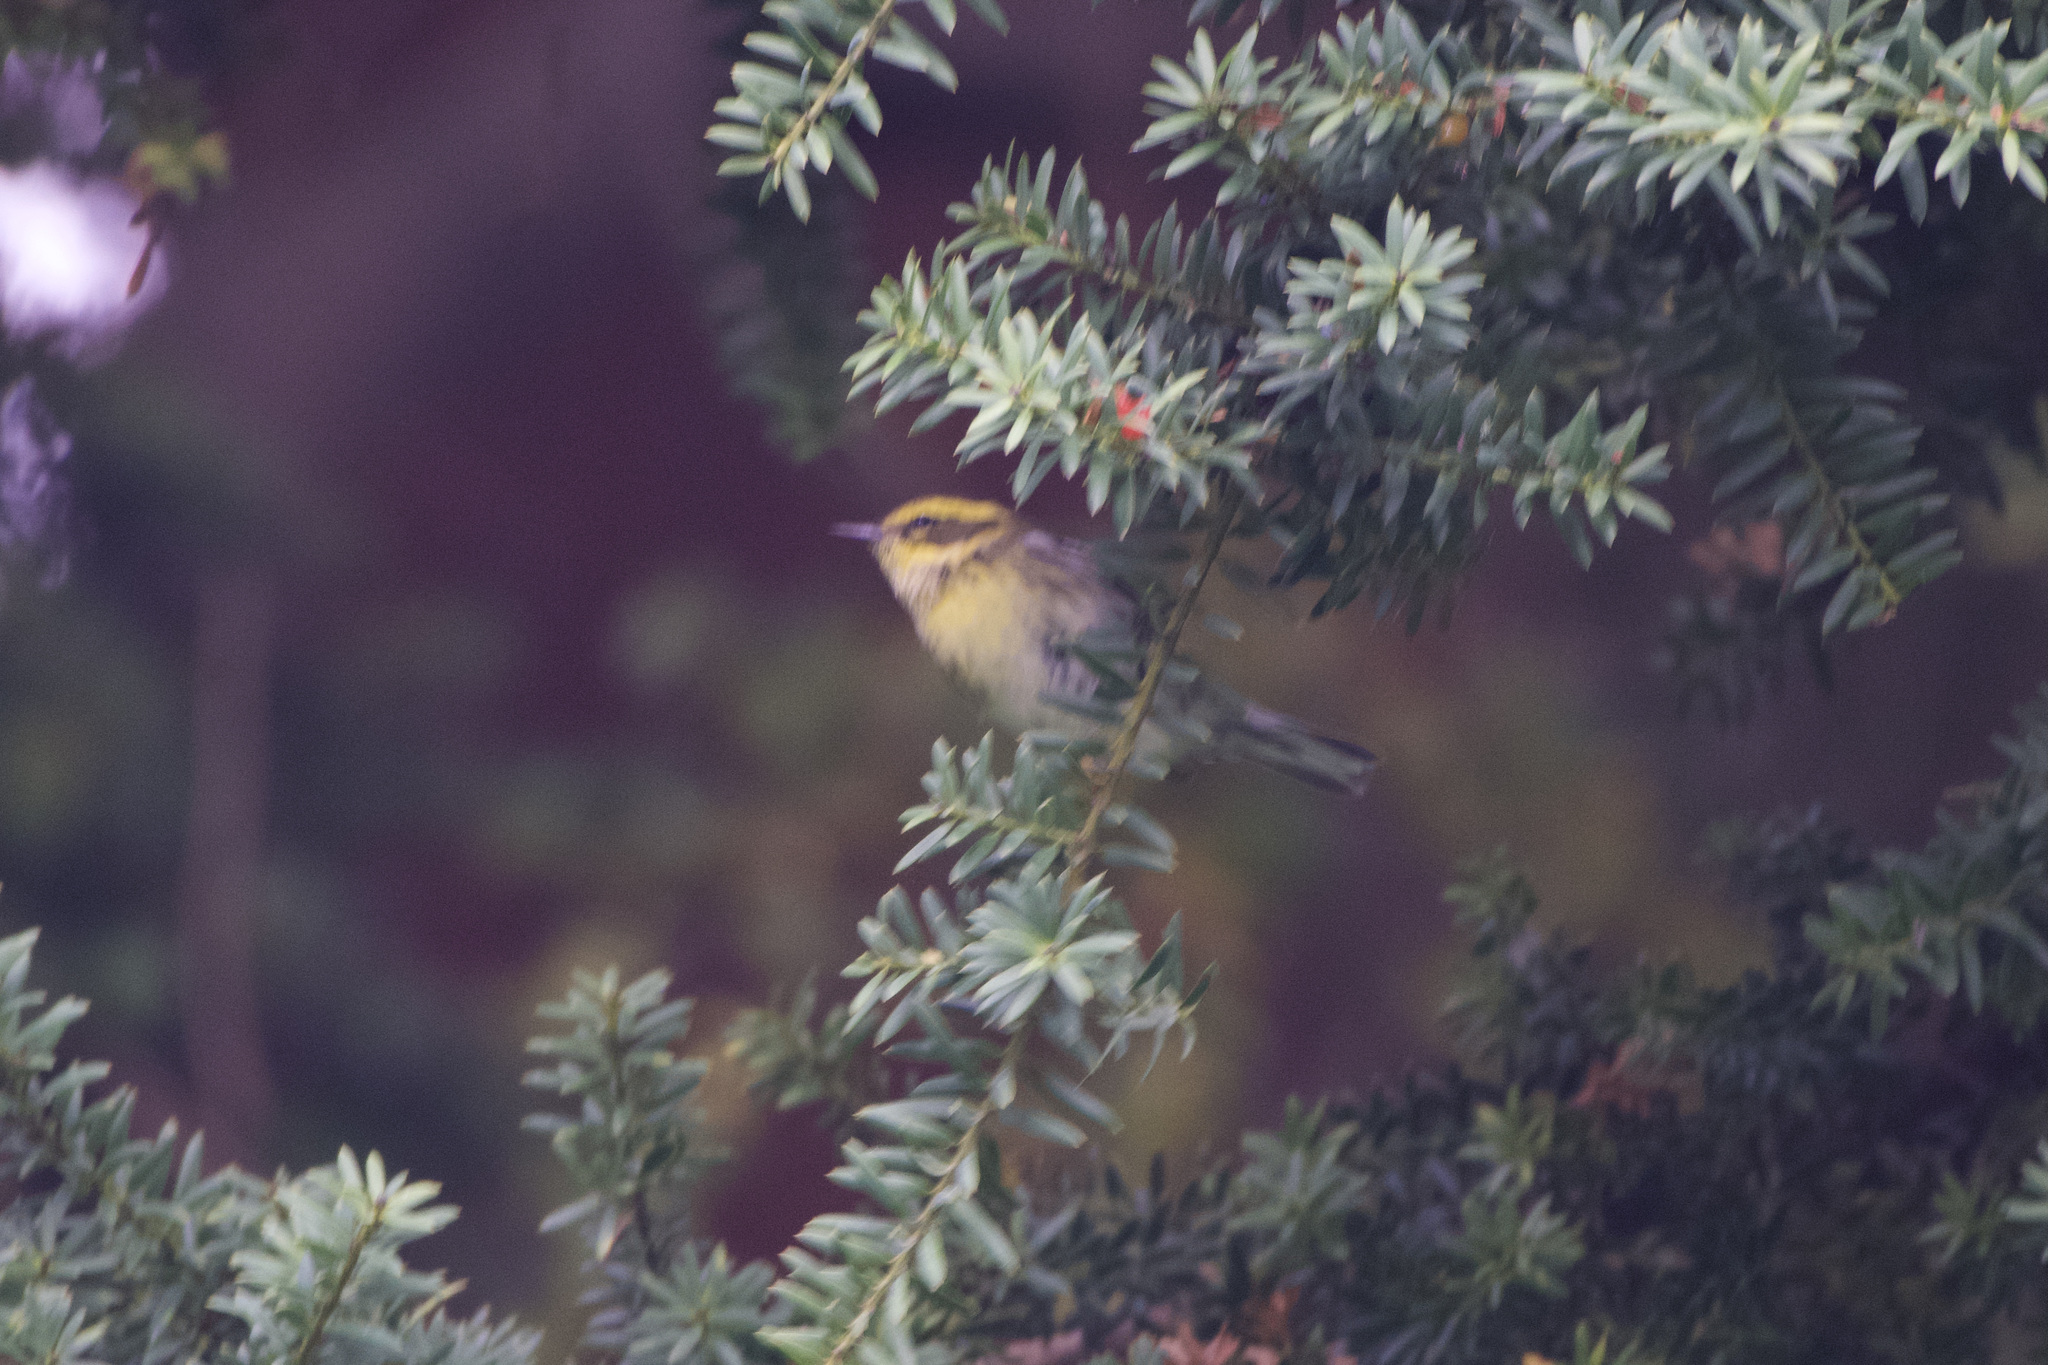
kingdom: Animalia
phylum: Chordata
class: Aves
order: Passeriformes
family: Parulidae
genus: Setophaga
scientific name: Setophaga townsendi
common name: Townsend's warbler
